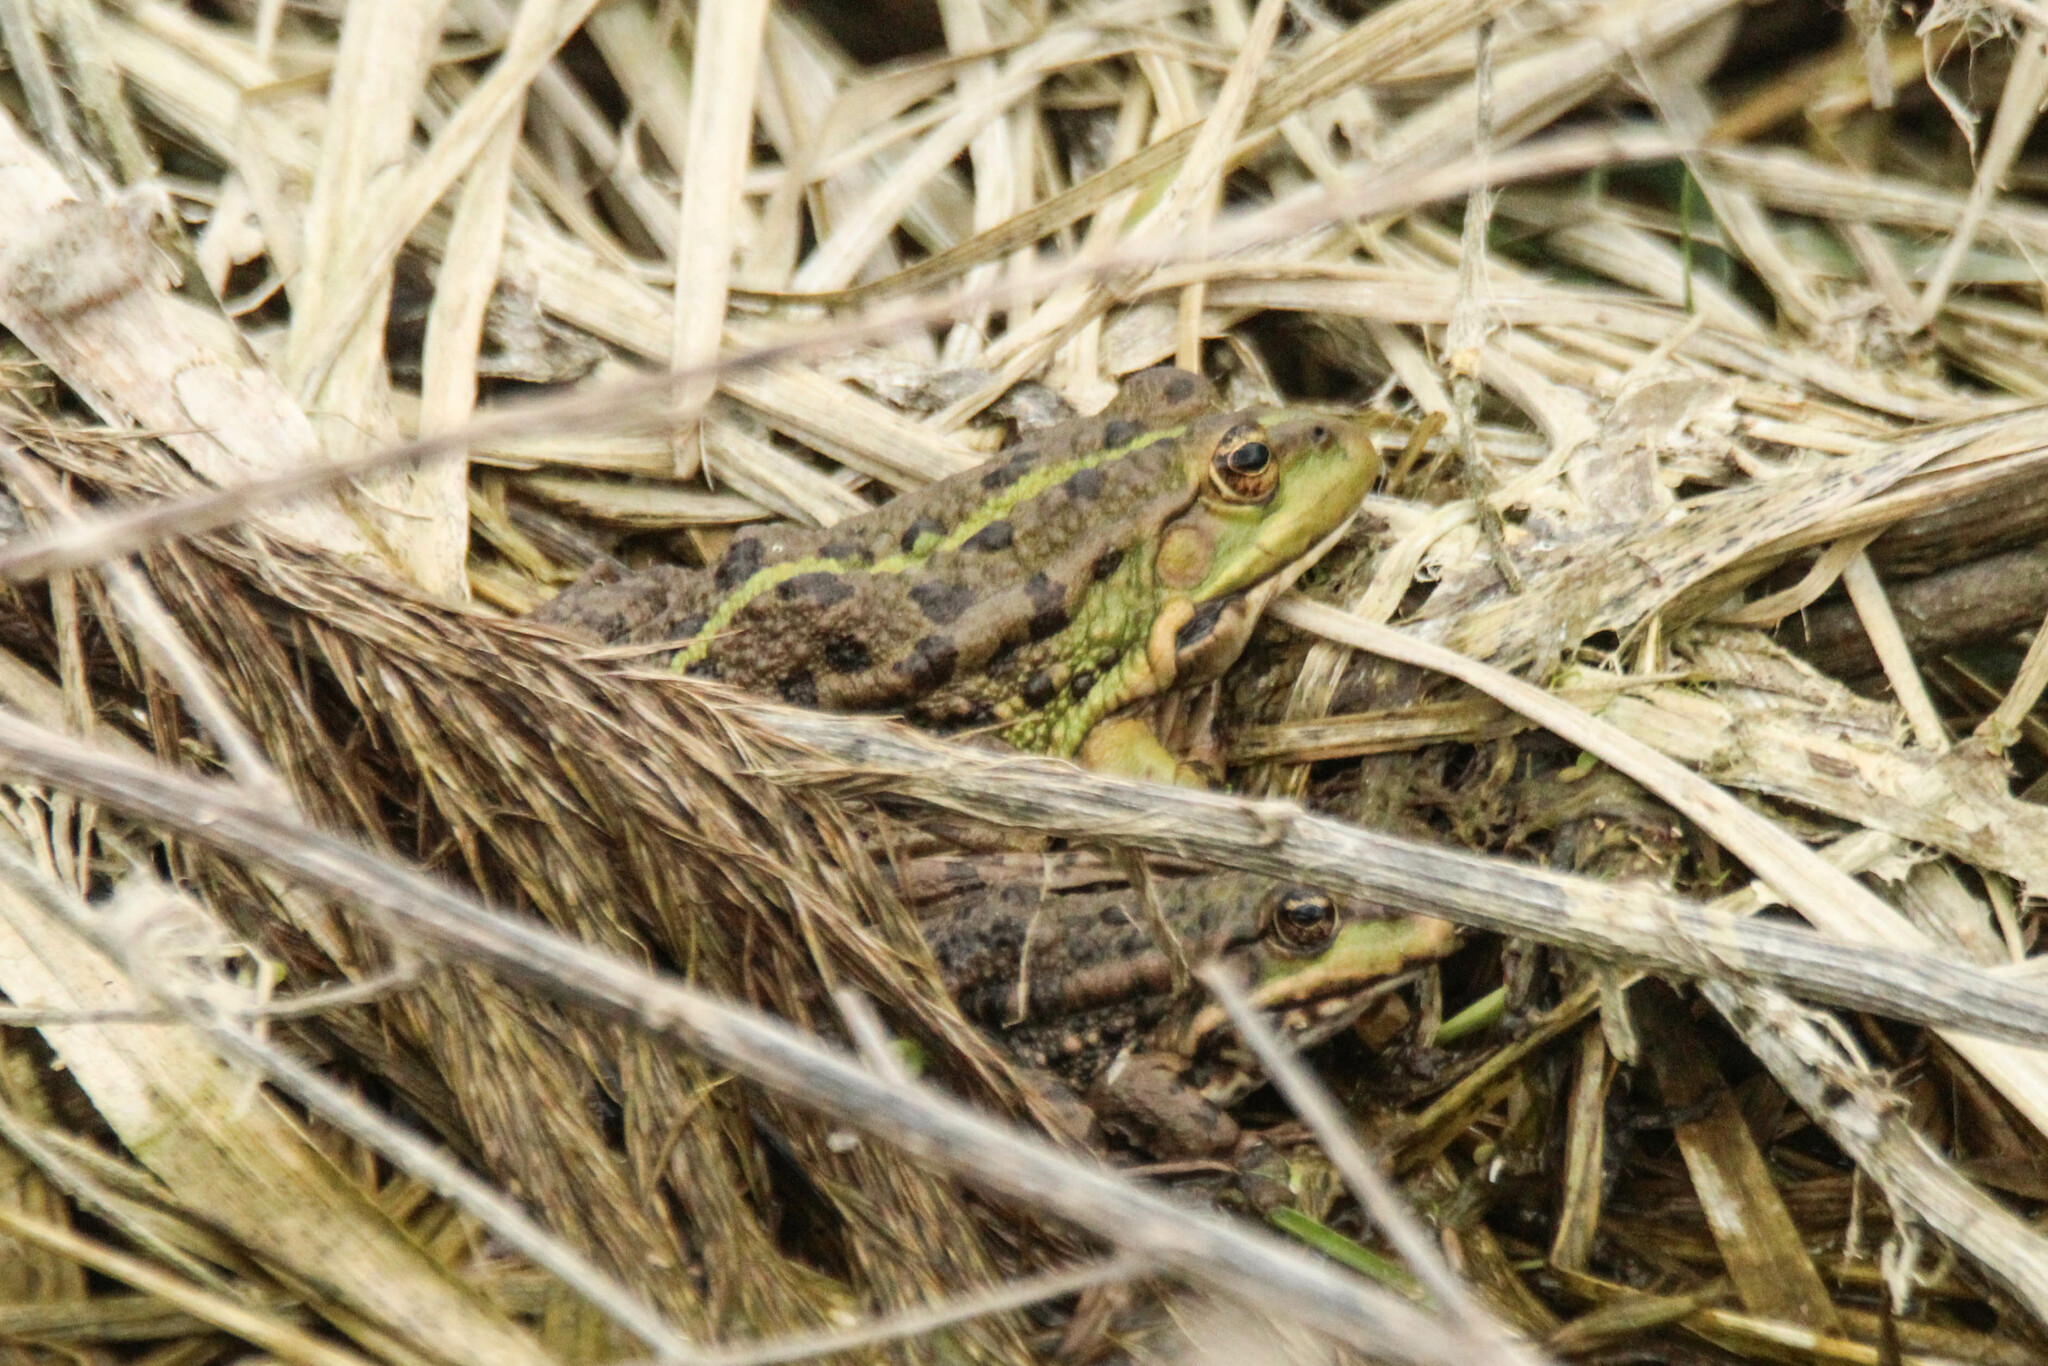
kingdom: Animalia
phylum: Chordata
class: Amphibia
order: Anura
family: Ranidae
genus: Pelophylax
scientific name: Pelophylax ridibundus
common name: Marsh frog
